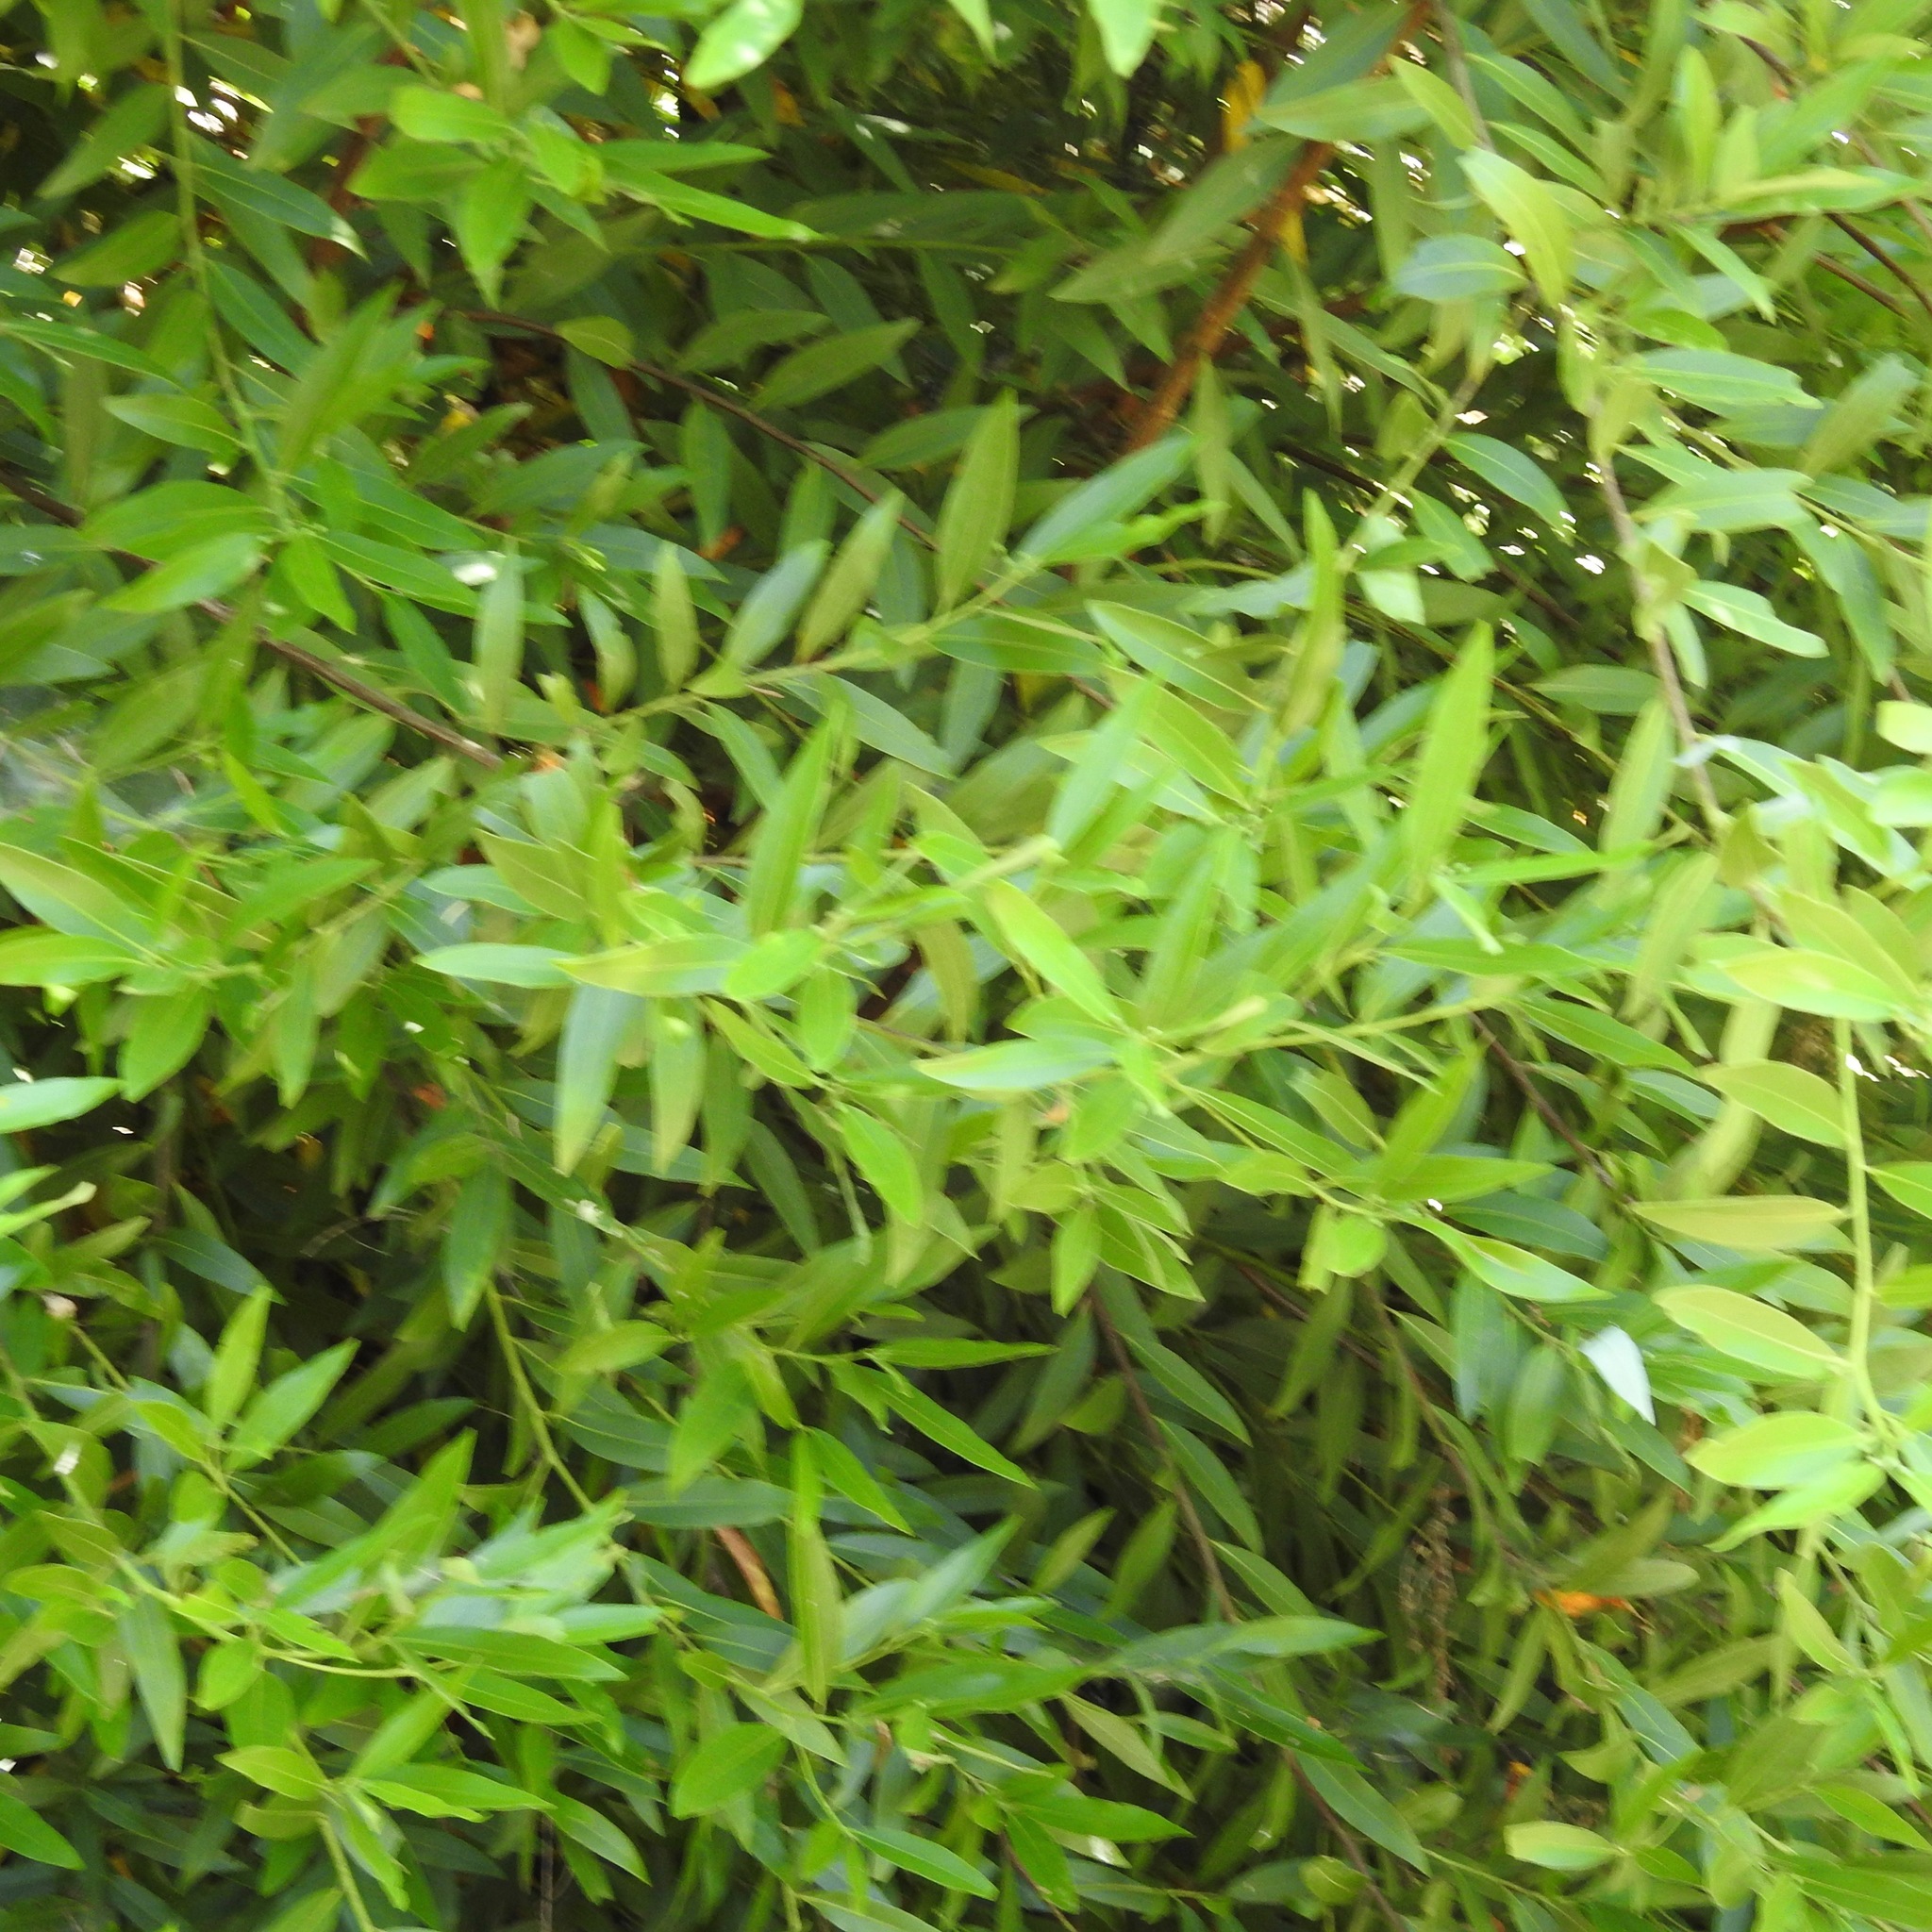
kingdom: Plantae
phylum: Tracheophyta
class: Magnoliopsida
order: Laurales
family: Lauraceae
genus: Umbellularia
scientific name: Umbellularia californica
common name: California bay
